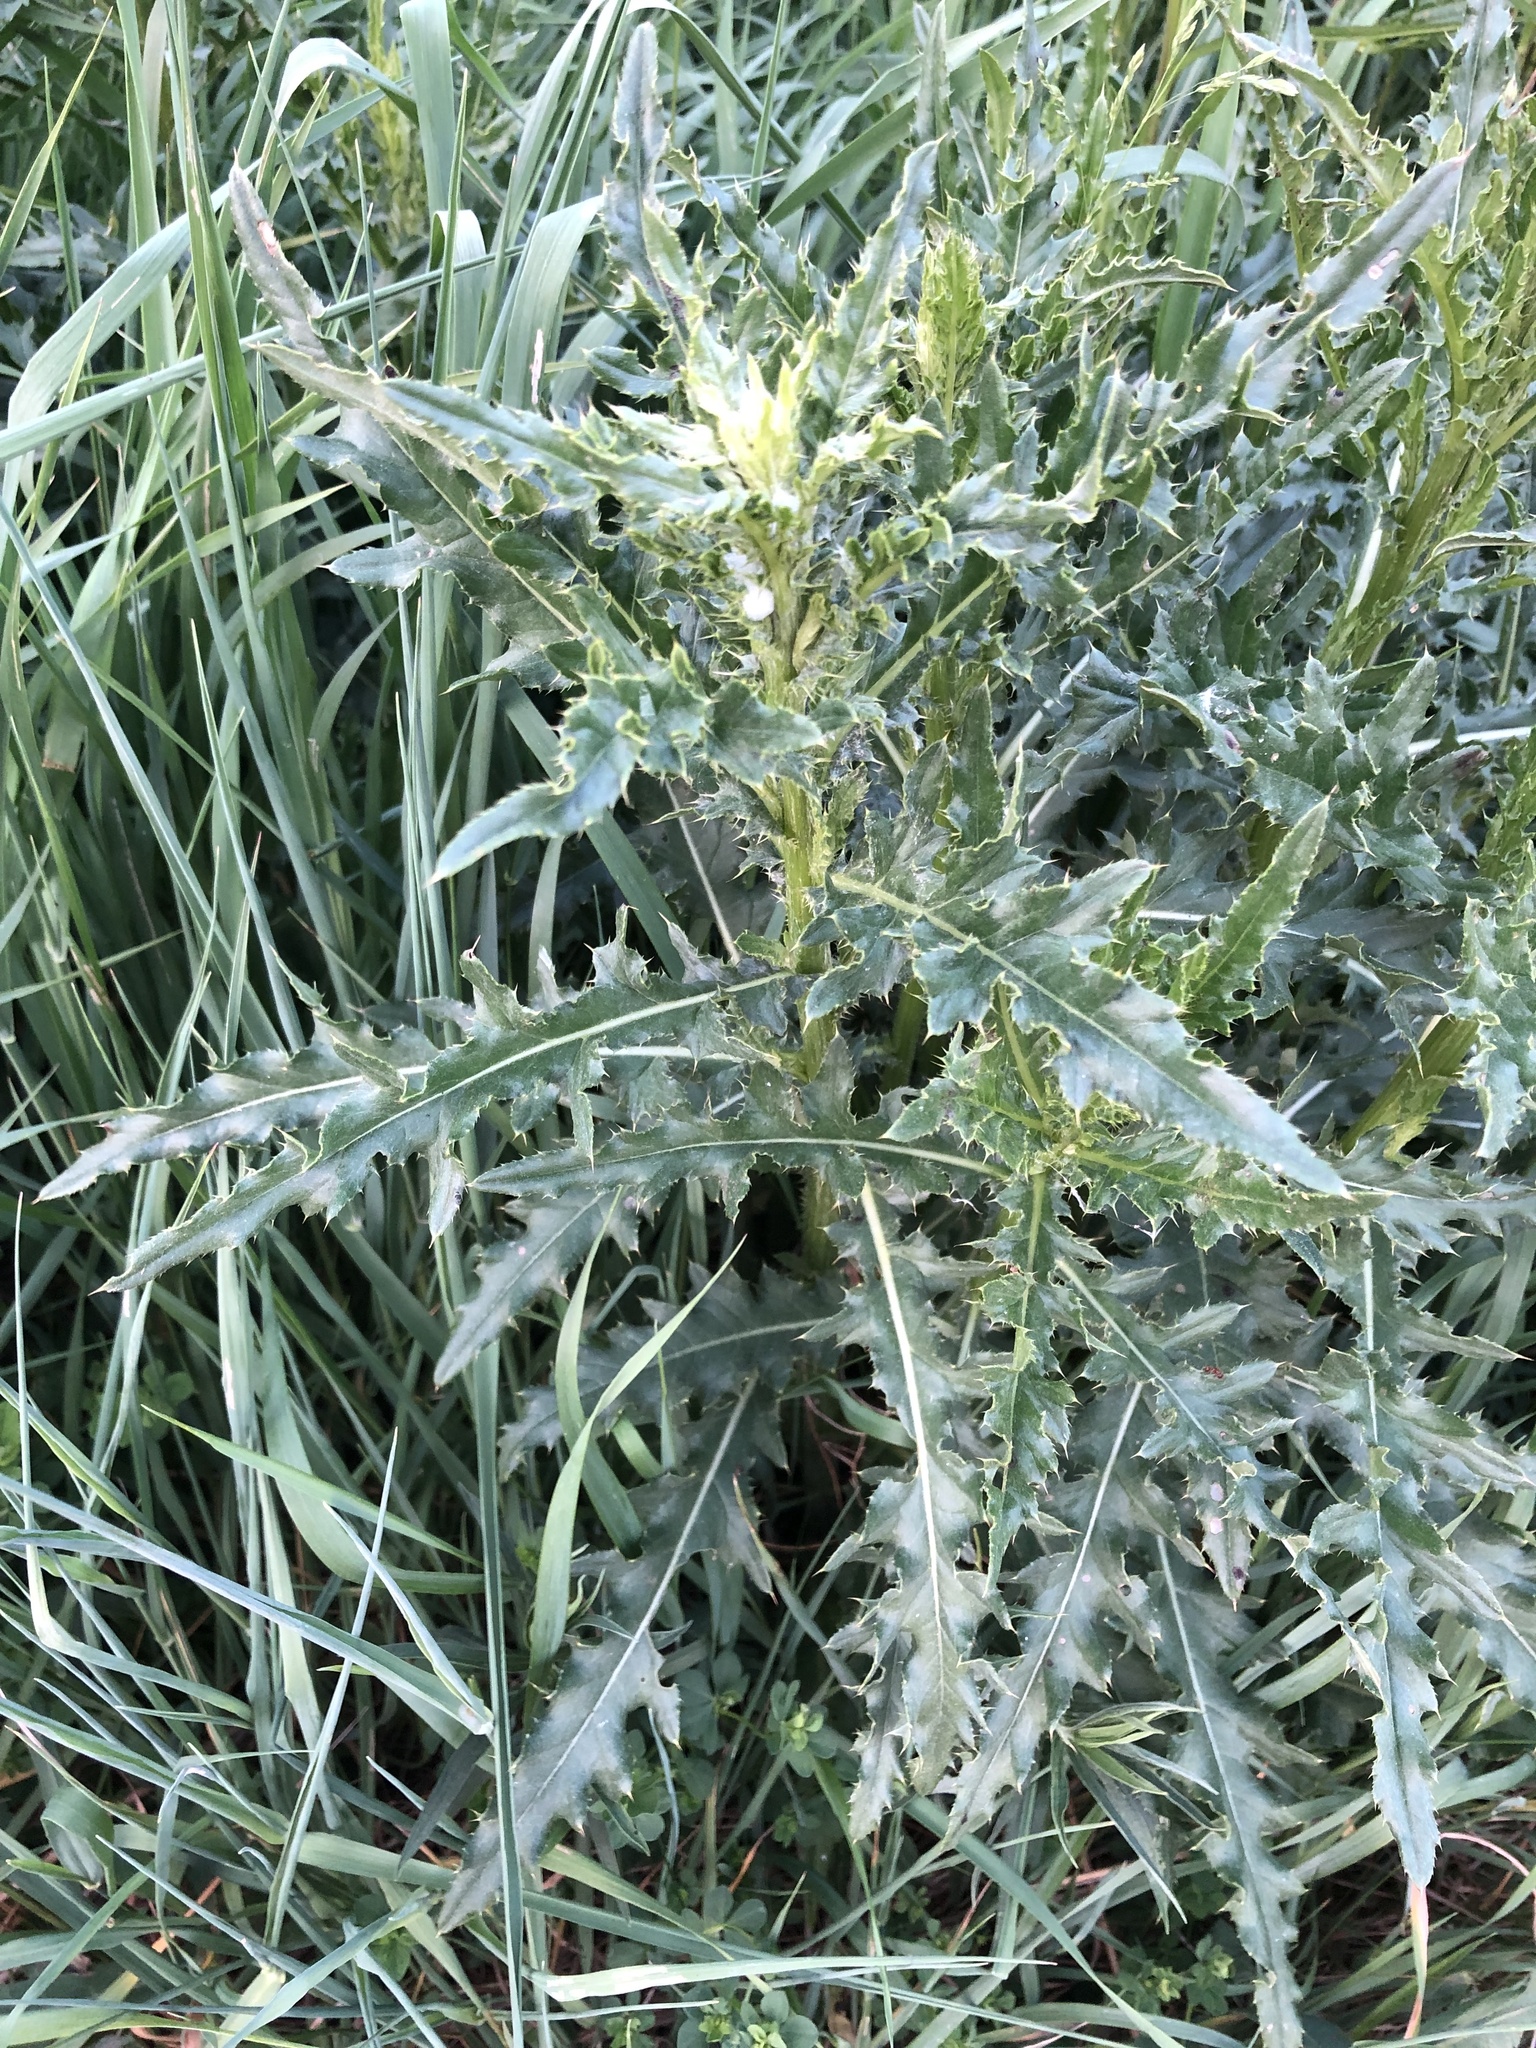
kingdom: Plantae
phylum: Tracheophyta
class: Magnoliopsida
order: Asterales
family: Asteraceae
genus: Cirsium
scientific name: Cirsium arvense
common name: Creeping thistle
